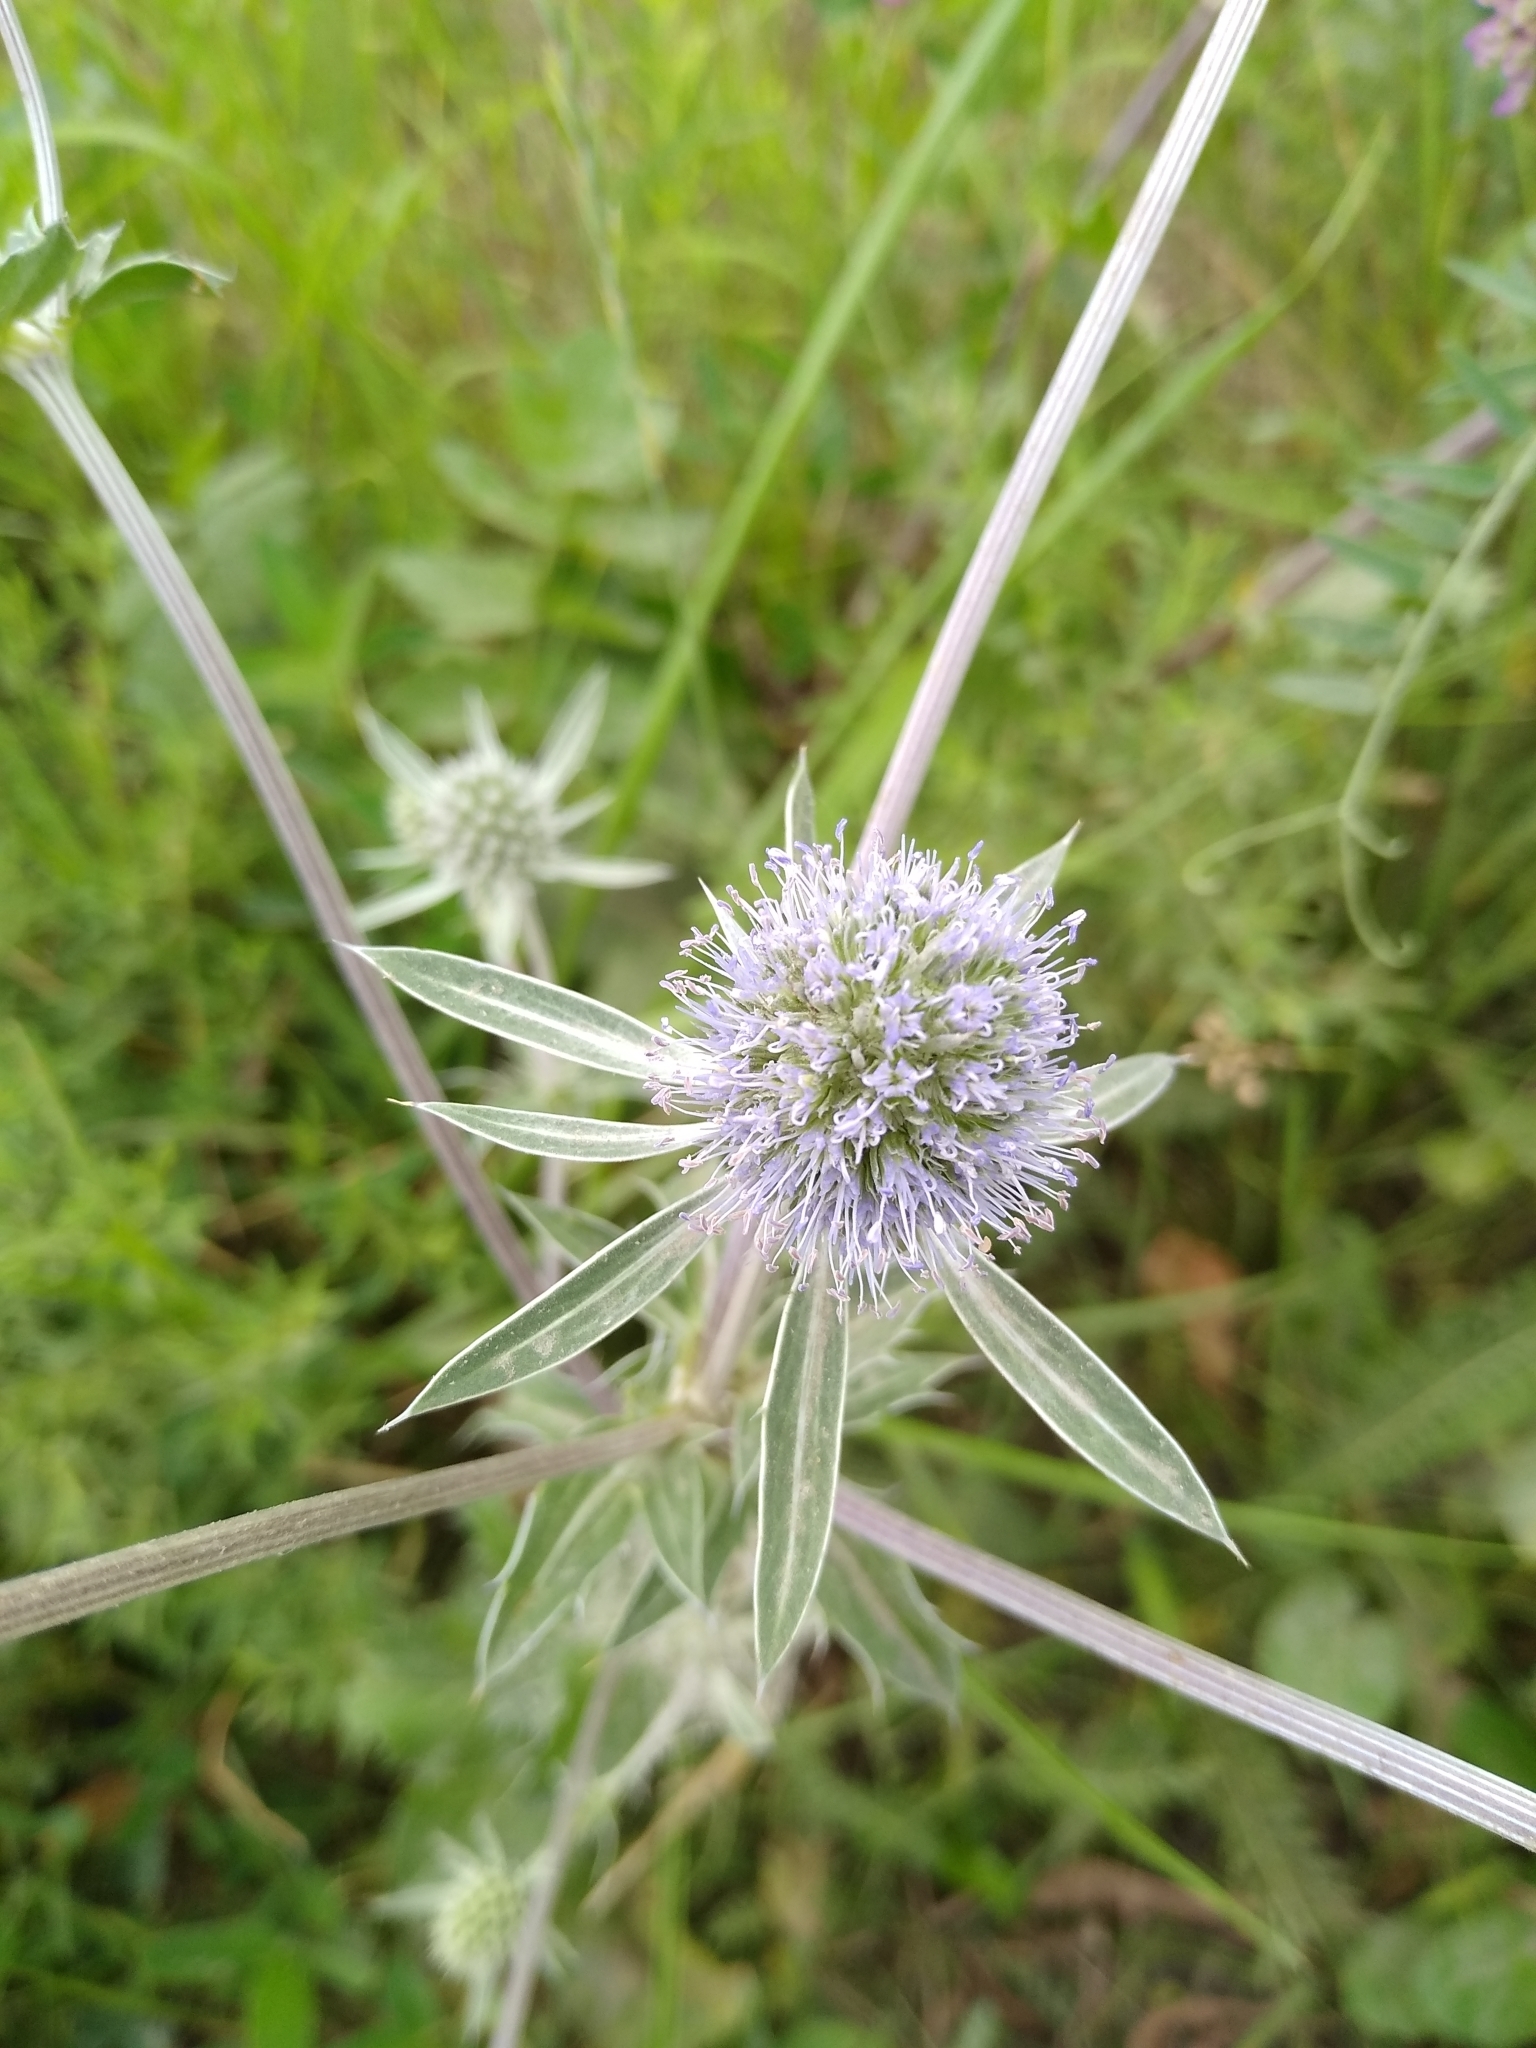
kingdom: Plantae
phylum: Tracheophyta
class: Magnoliopsida
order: Apiales
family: Apiaceae
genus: Eryngium
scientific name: Eryngium planum
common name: Blue eryngo
